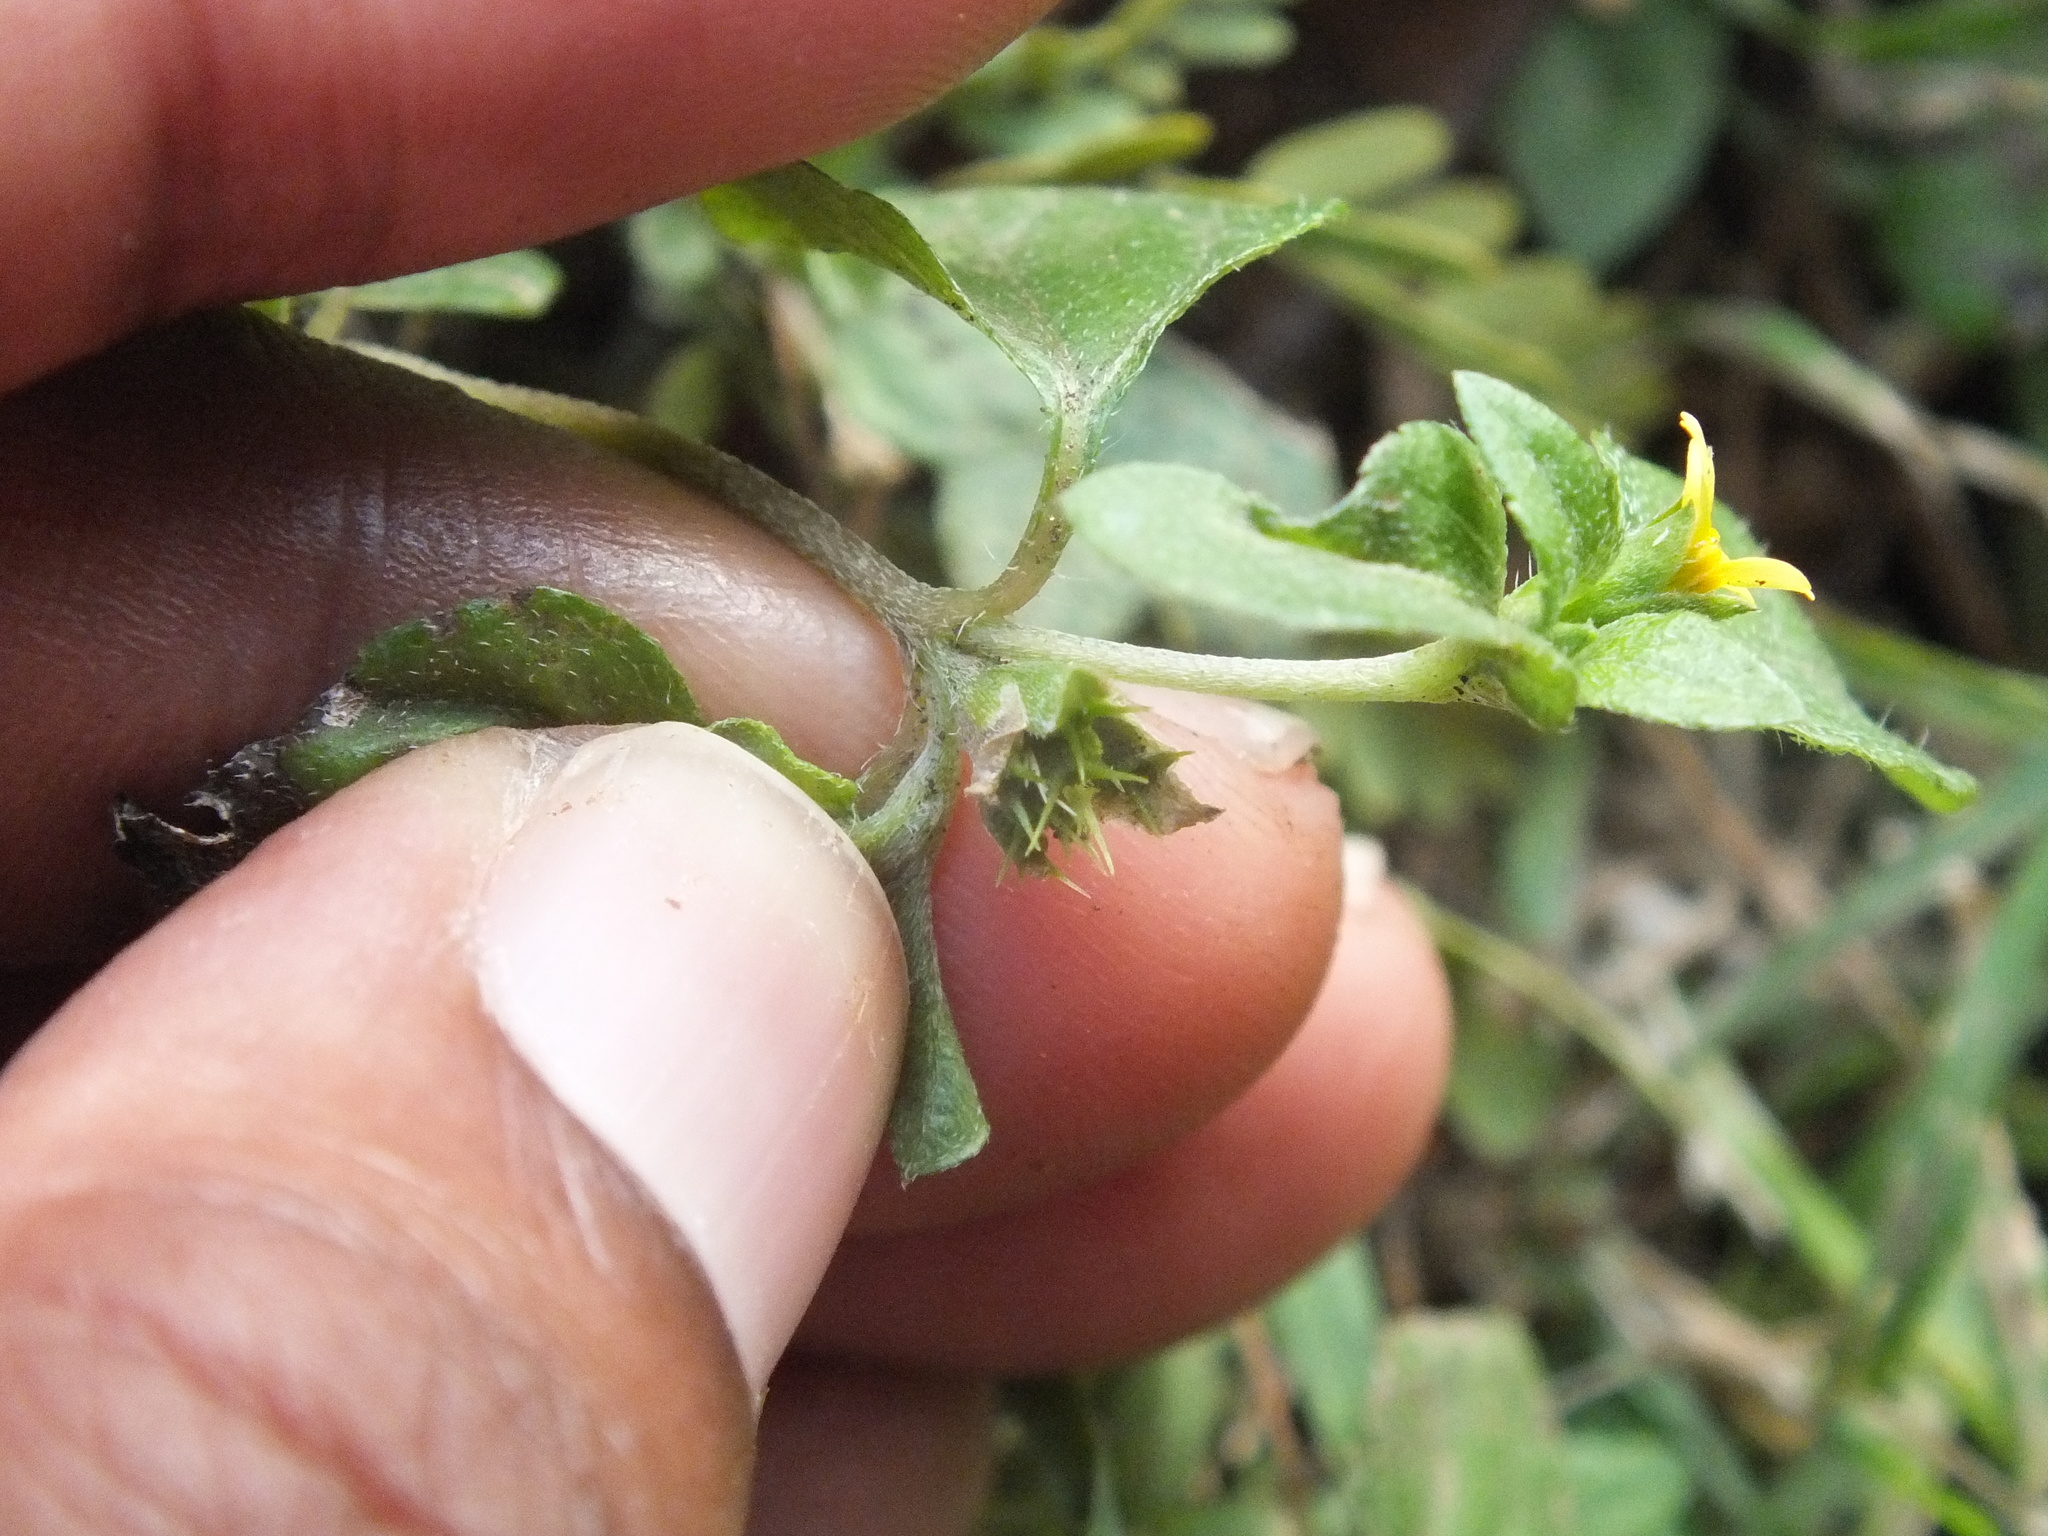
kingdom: Plantae
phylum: Tracheophyta
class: Magnoliopsida
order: Asterales
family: Asteraceae
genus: Calyptocarpus
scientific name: Calyptocarpus vialis
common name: Straggler daisy
